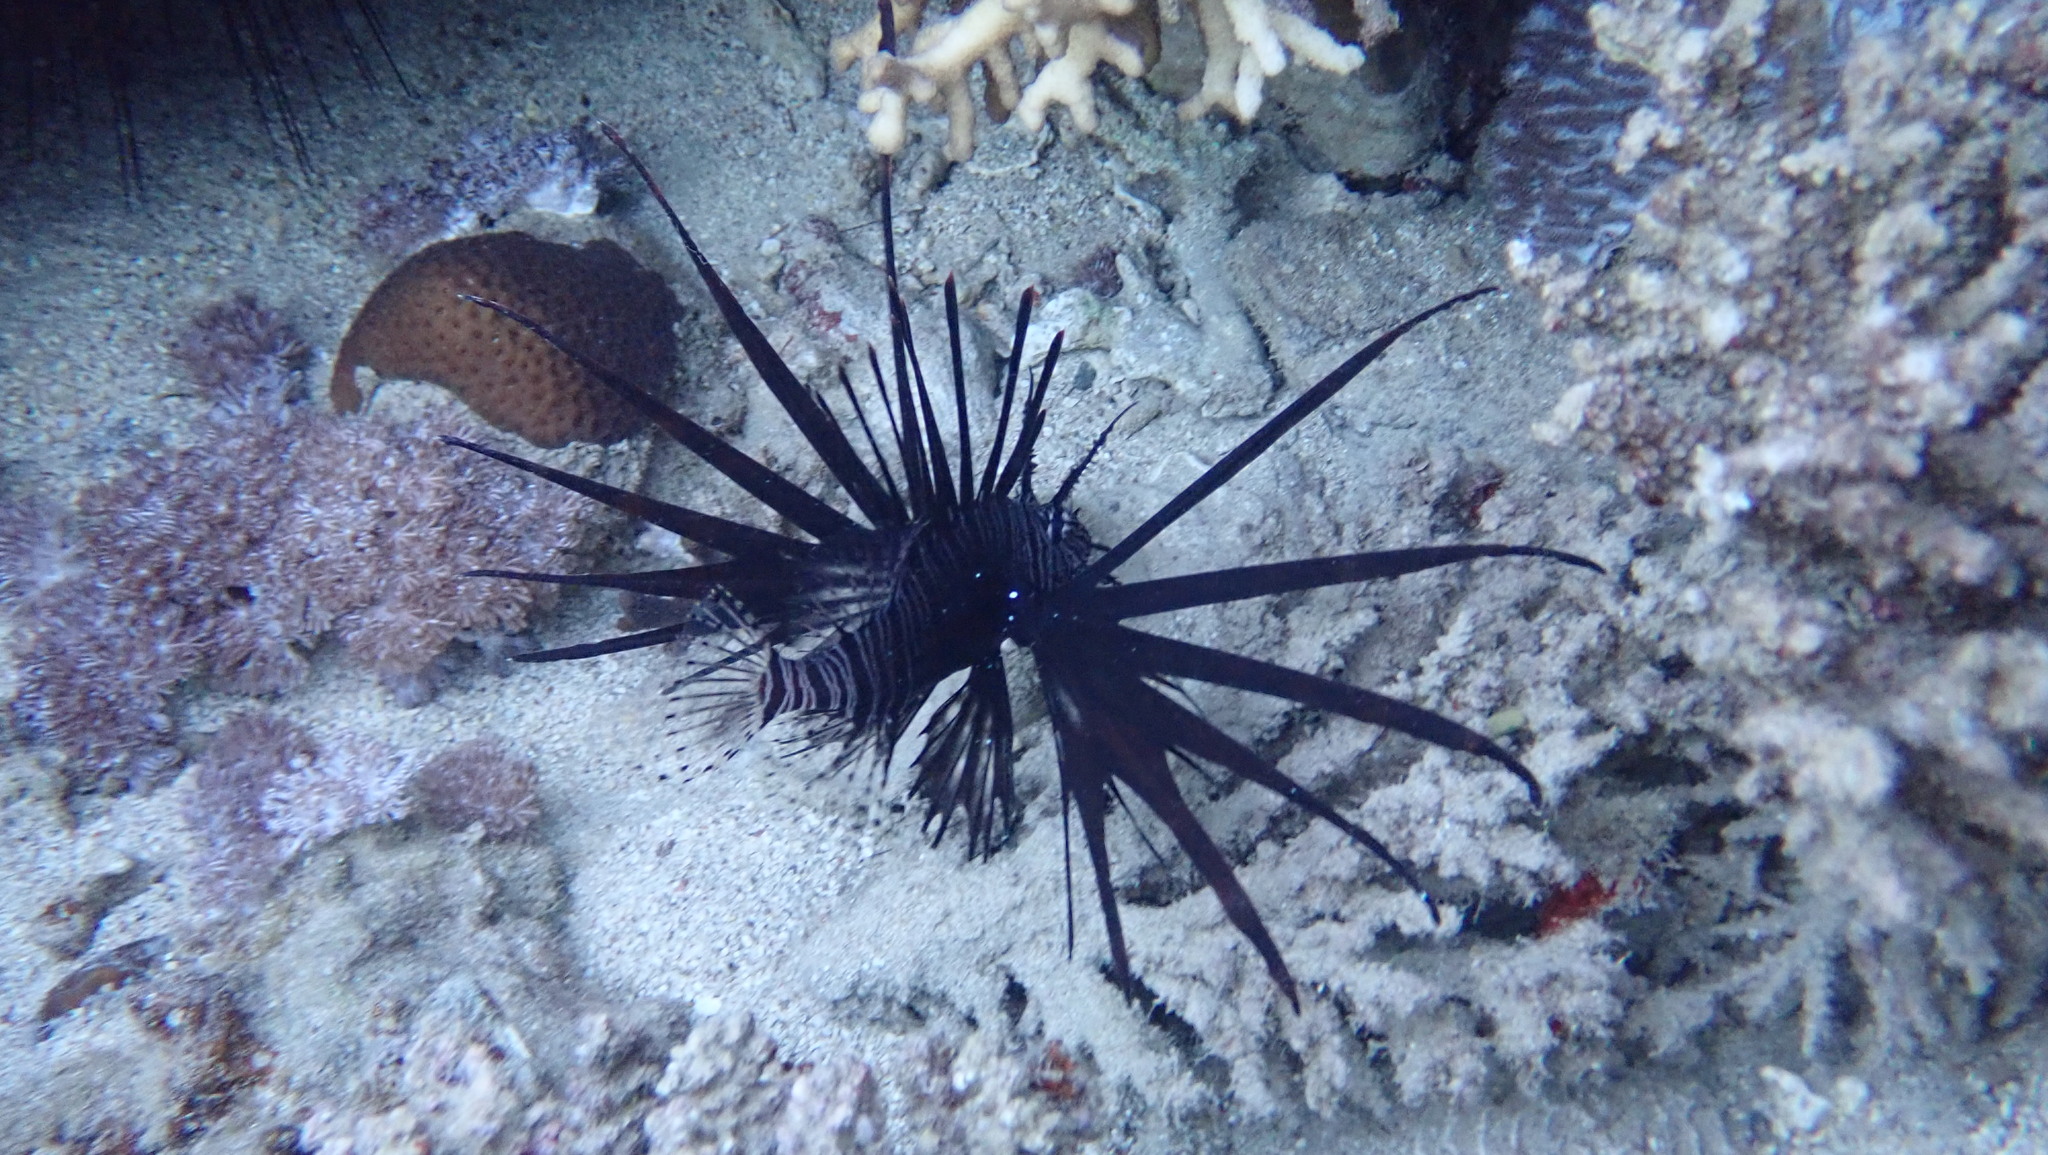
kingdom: Animalia
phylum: Chordata
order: Scorpaeniformes
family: Scorpaenidae
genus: Pterois
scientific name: Pterois miles
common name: Devil firefish
